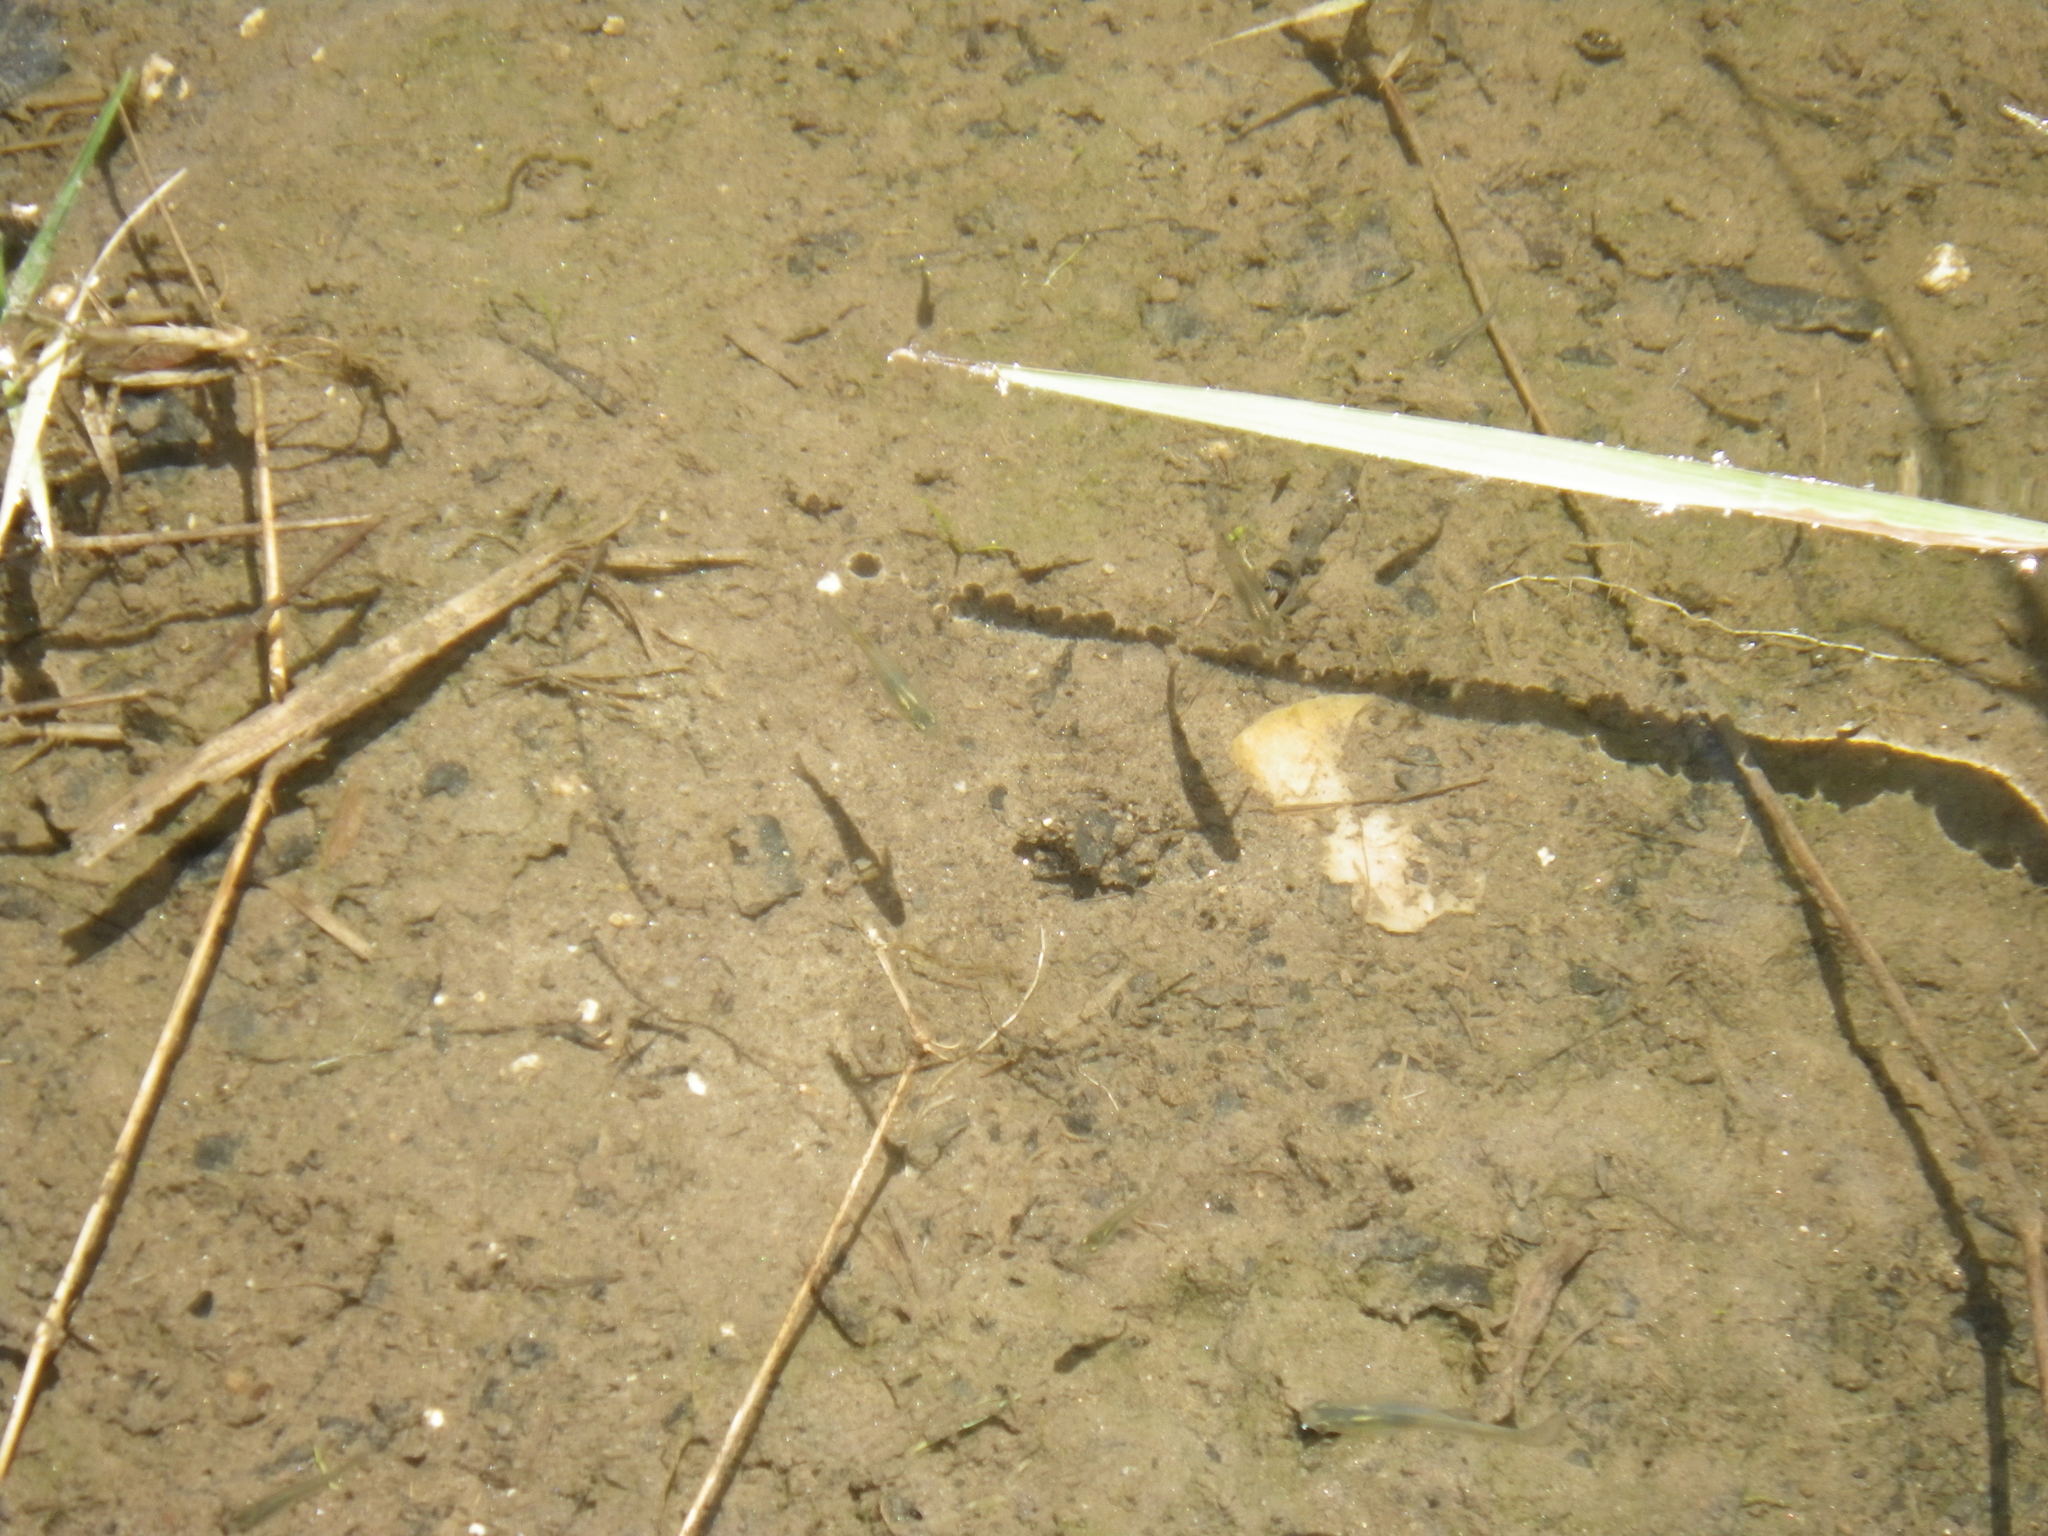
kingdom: Animalia
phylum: Chordata
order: Cyprinodontiformes
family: Poeciliidae
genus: Gambusia
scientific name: Gambusia affinis
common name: Mosquitofish
